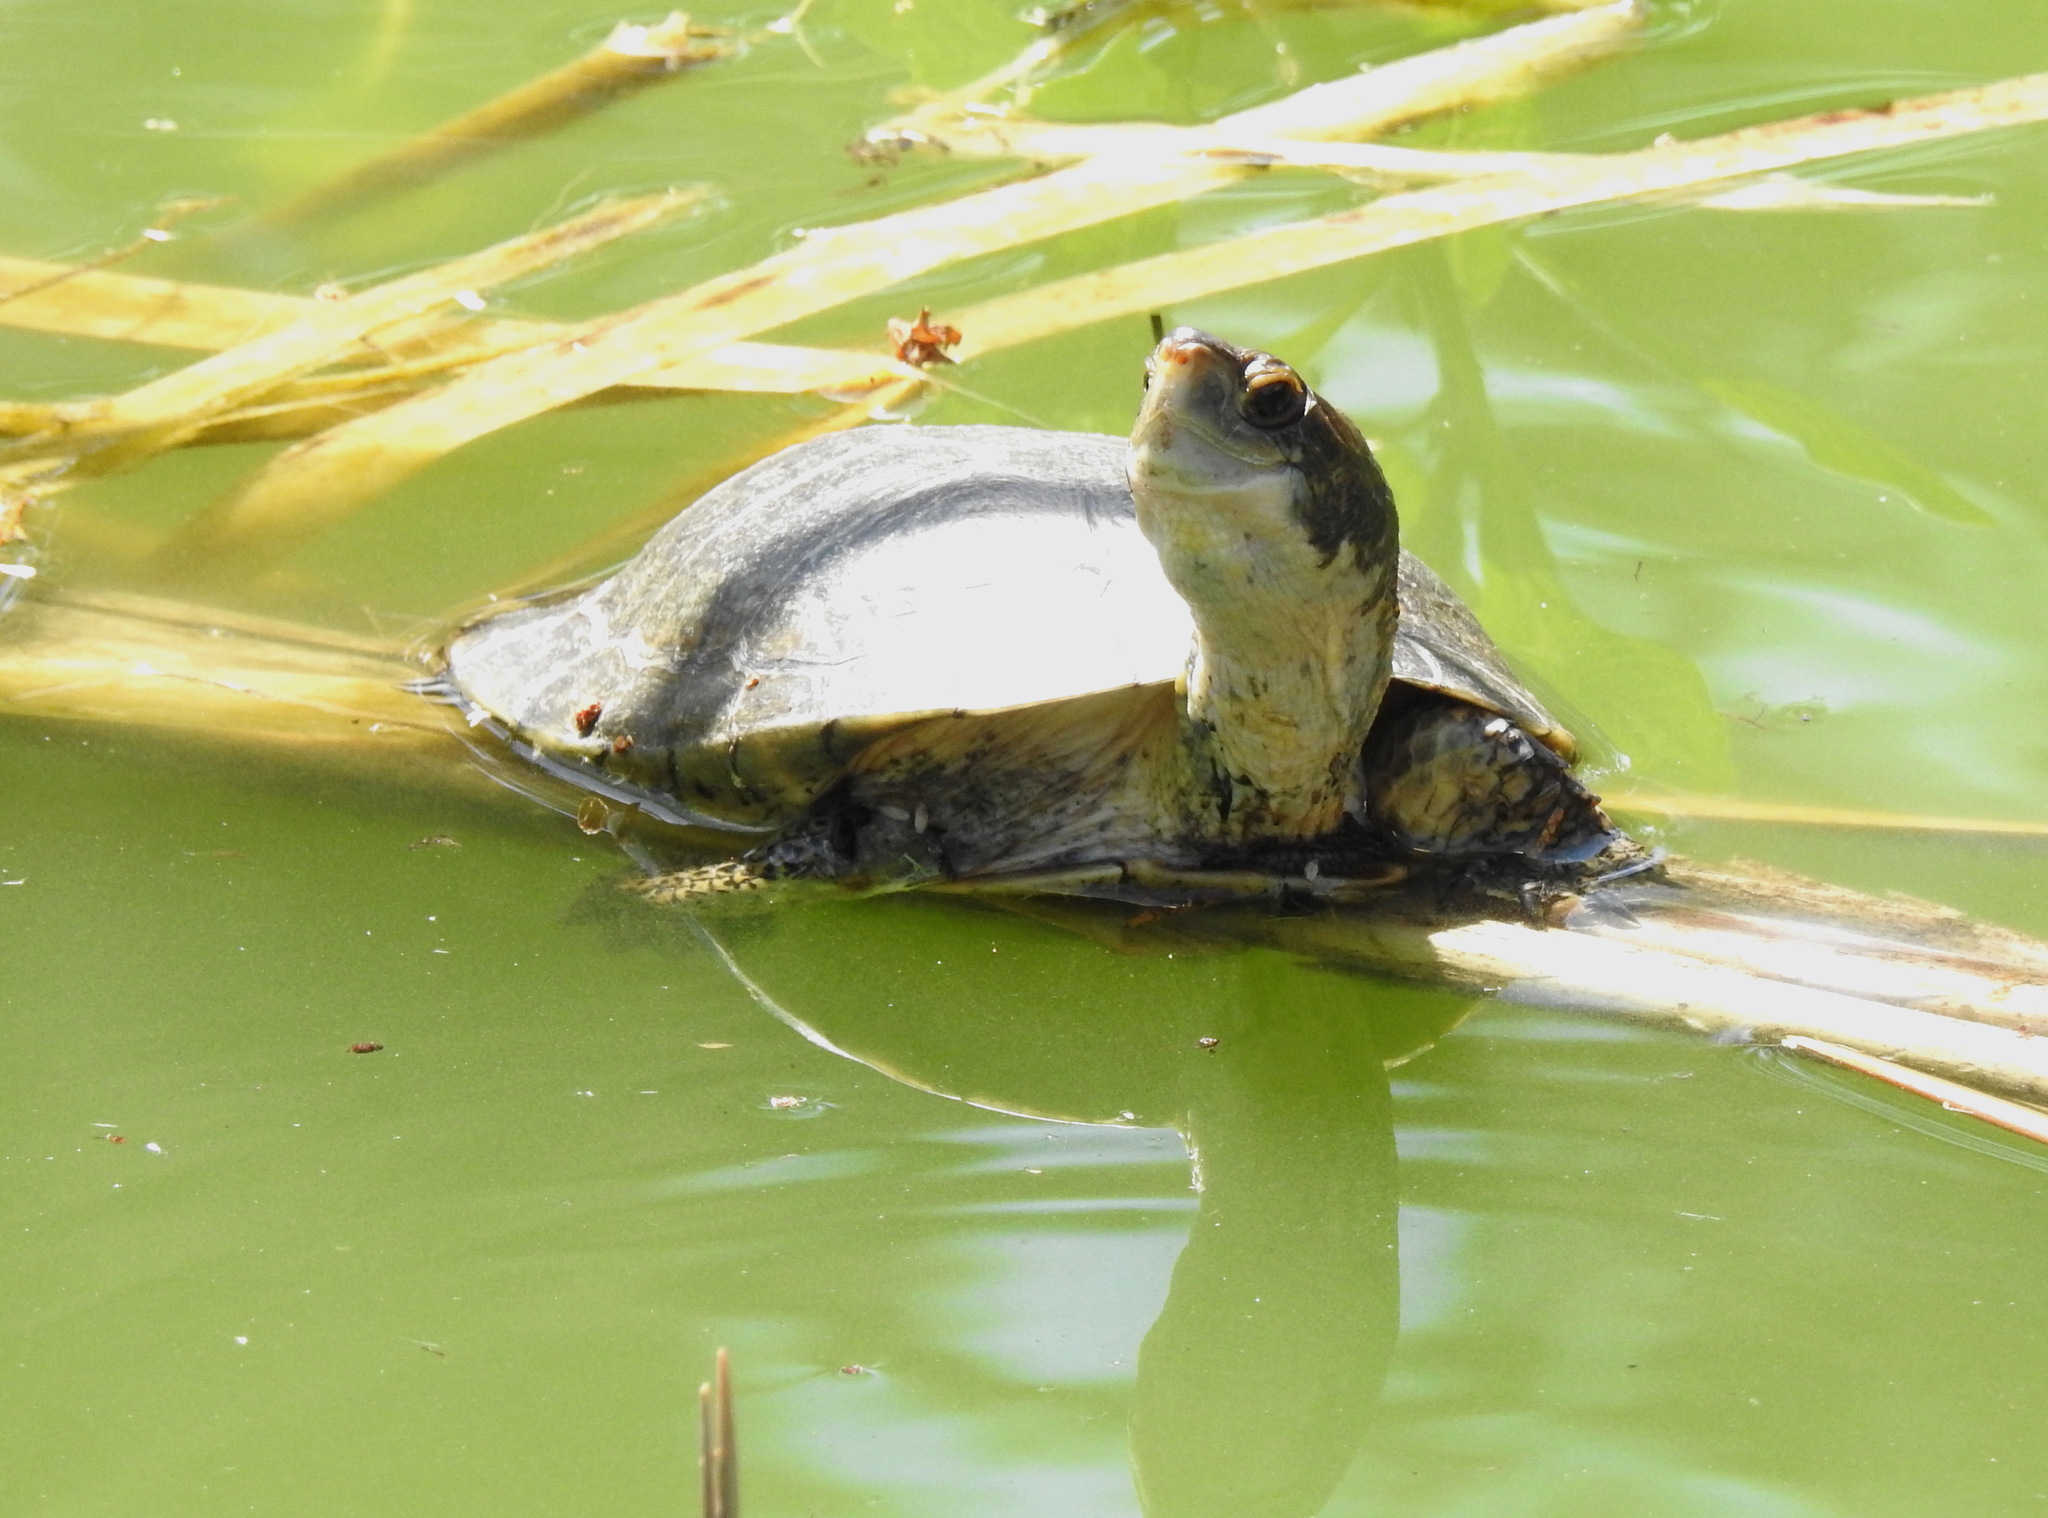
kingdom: Animalia
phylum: Chordata
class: Testudines
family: Emydidae
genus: Actinemys
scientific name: Actinemys marmorata
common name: Western pond turtle
